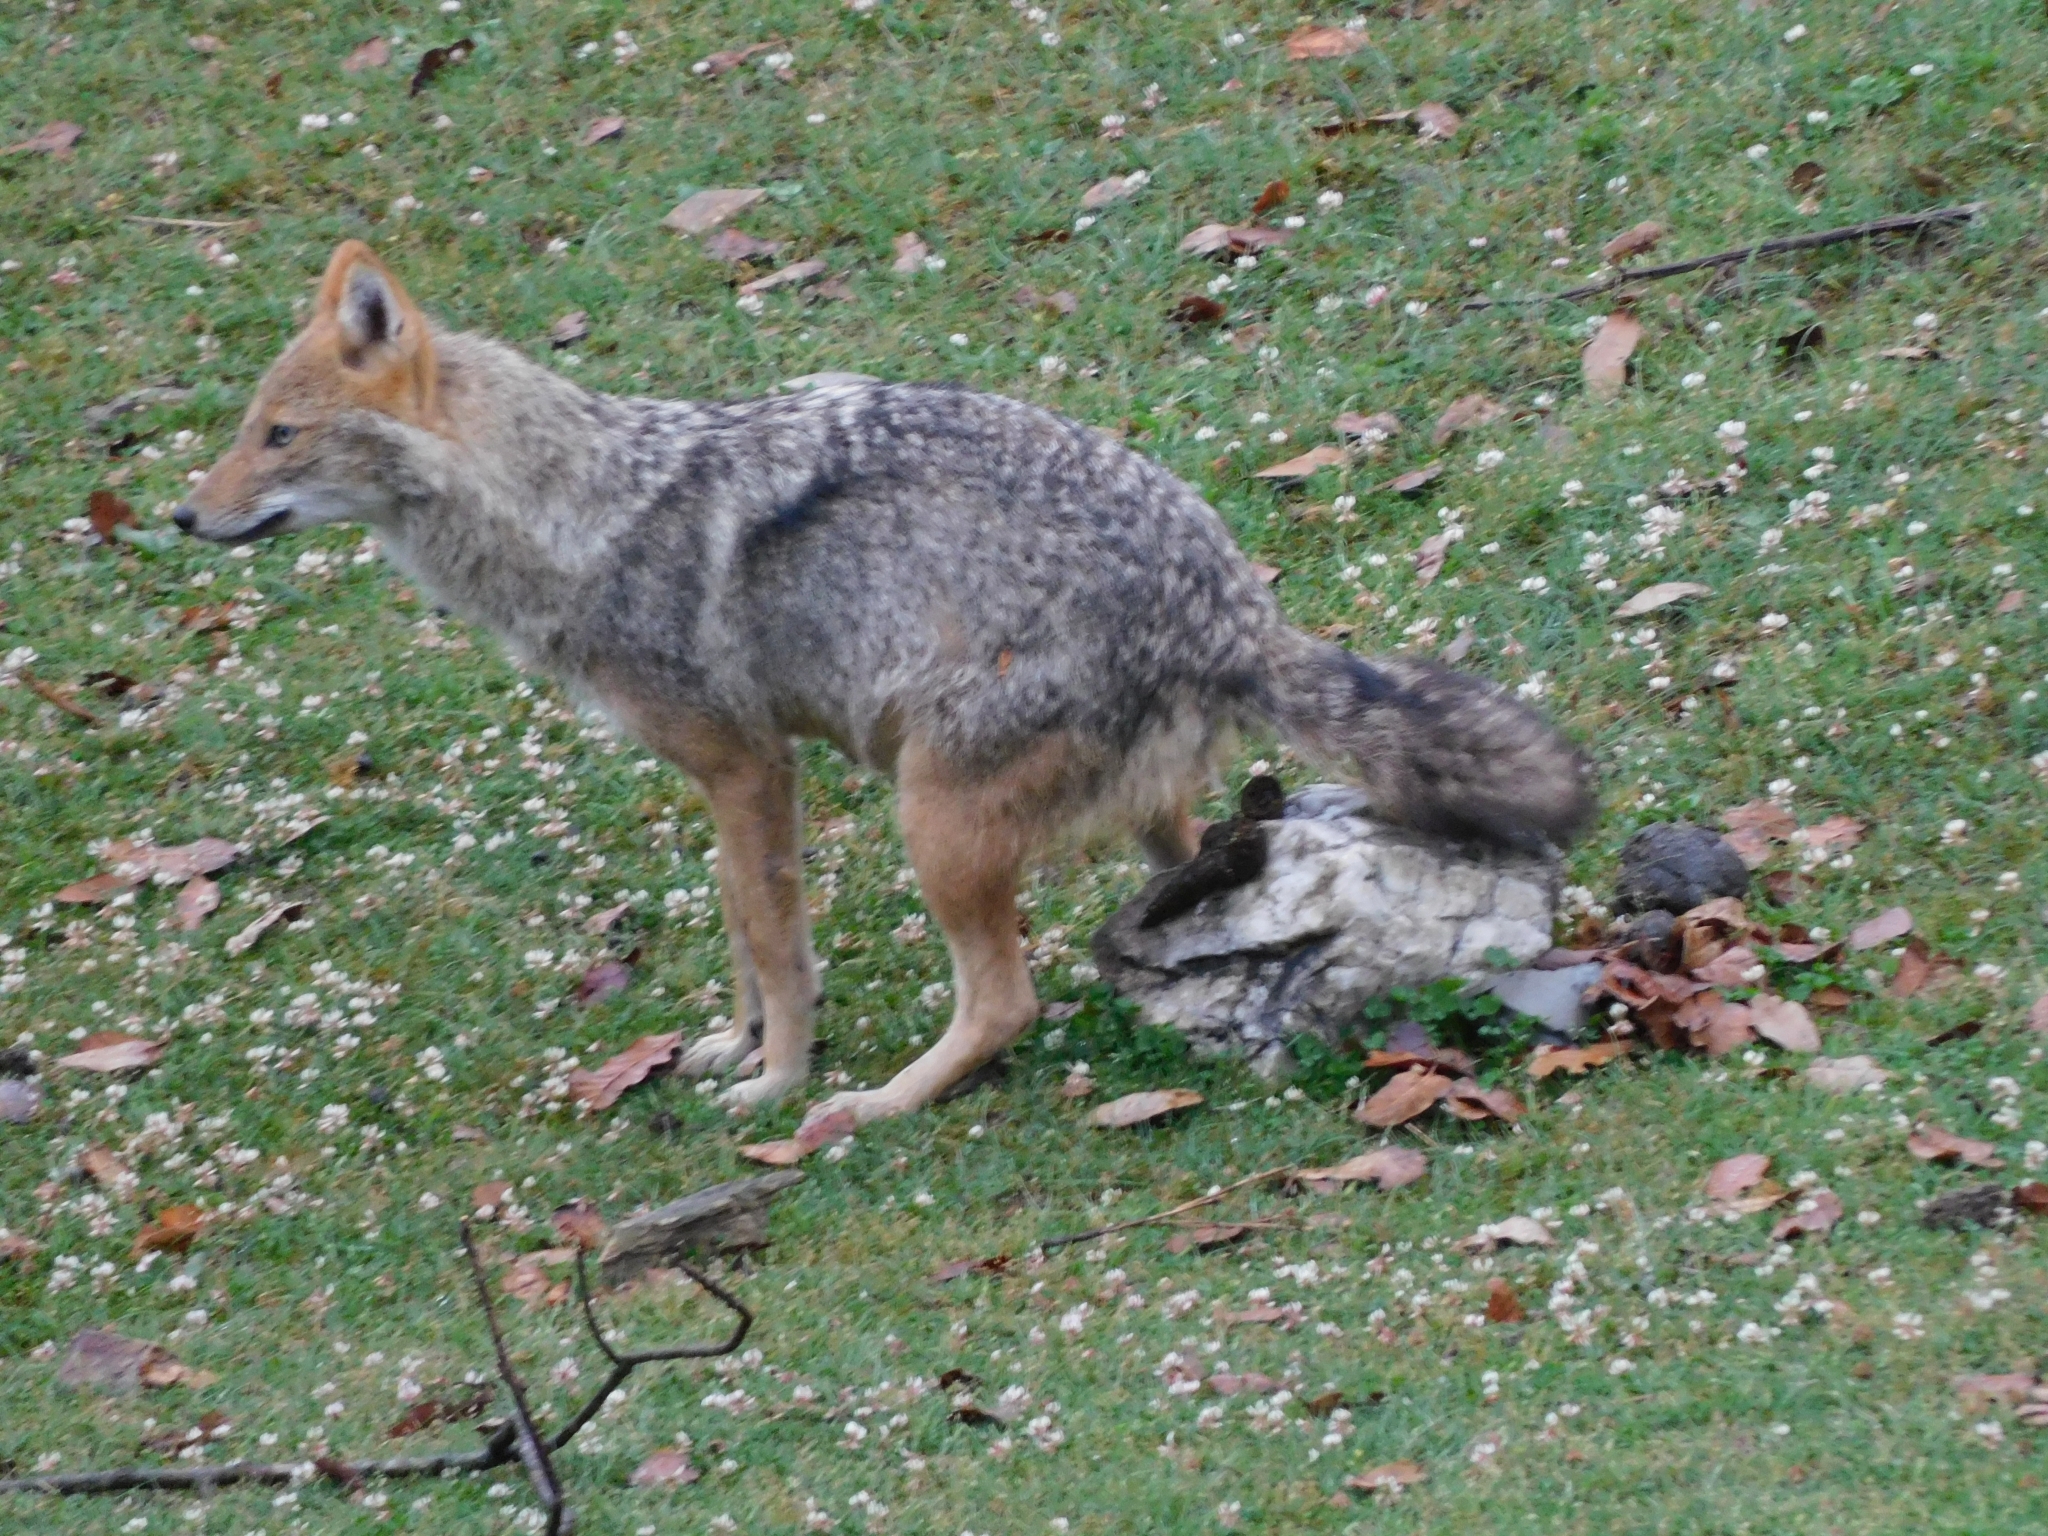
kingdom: Animalia
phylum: Chordata
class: Mammalia
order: Carnivora
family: Canidae
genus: Canis
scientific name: Canis aureus
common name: Golden jackal
